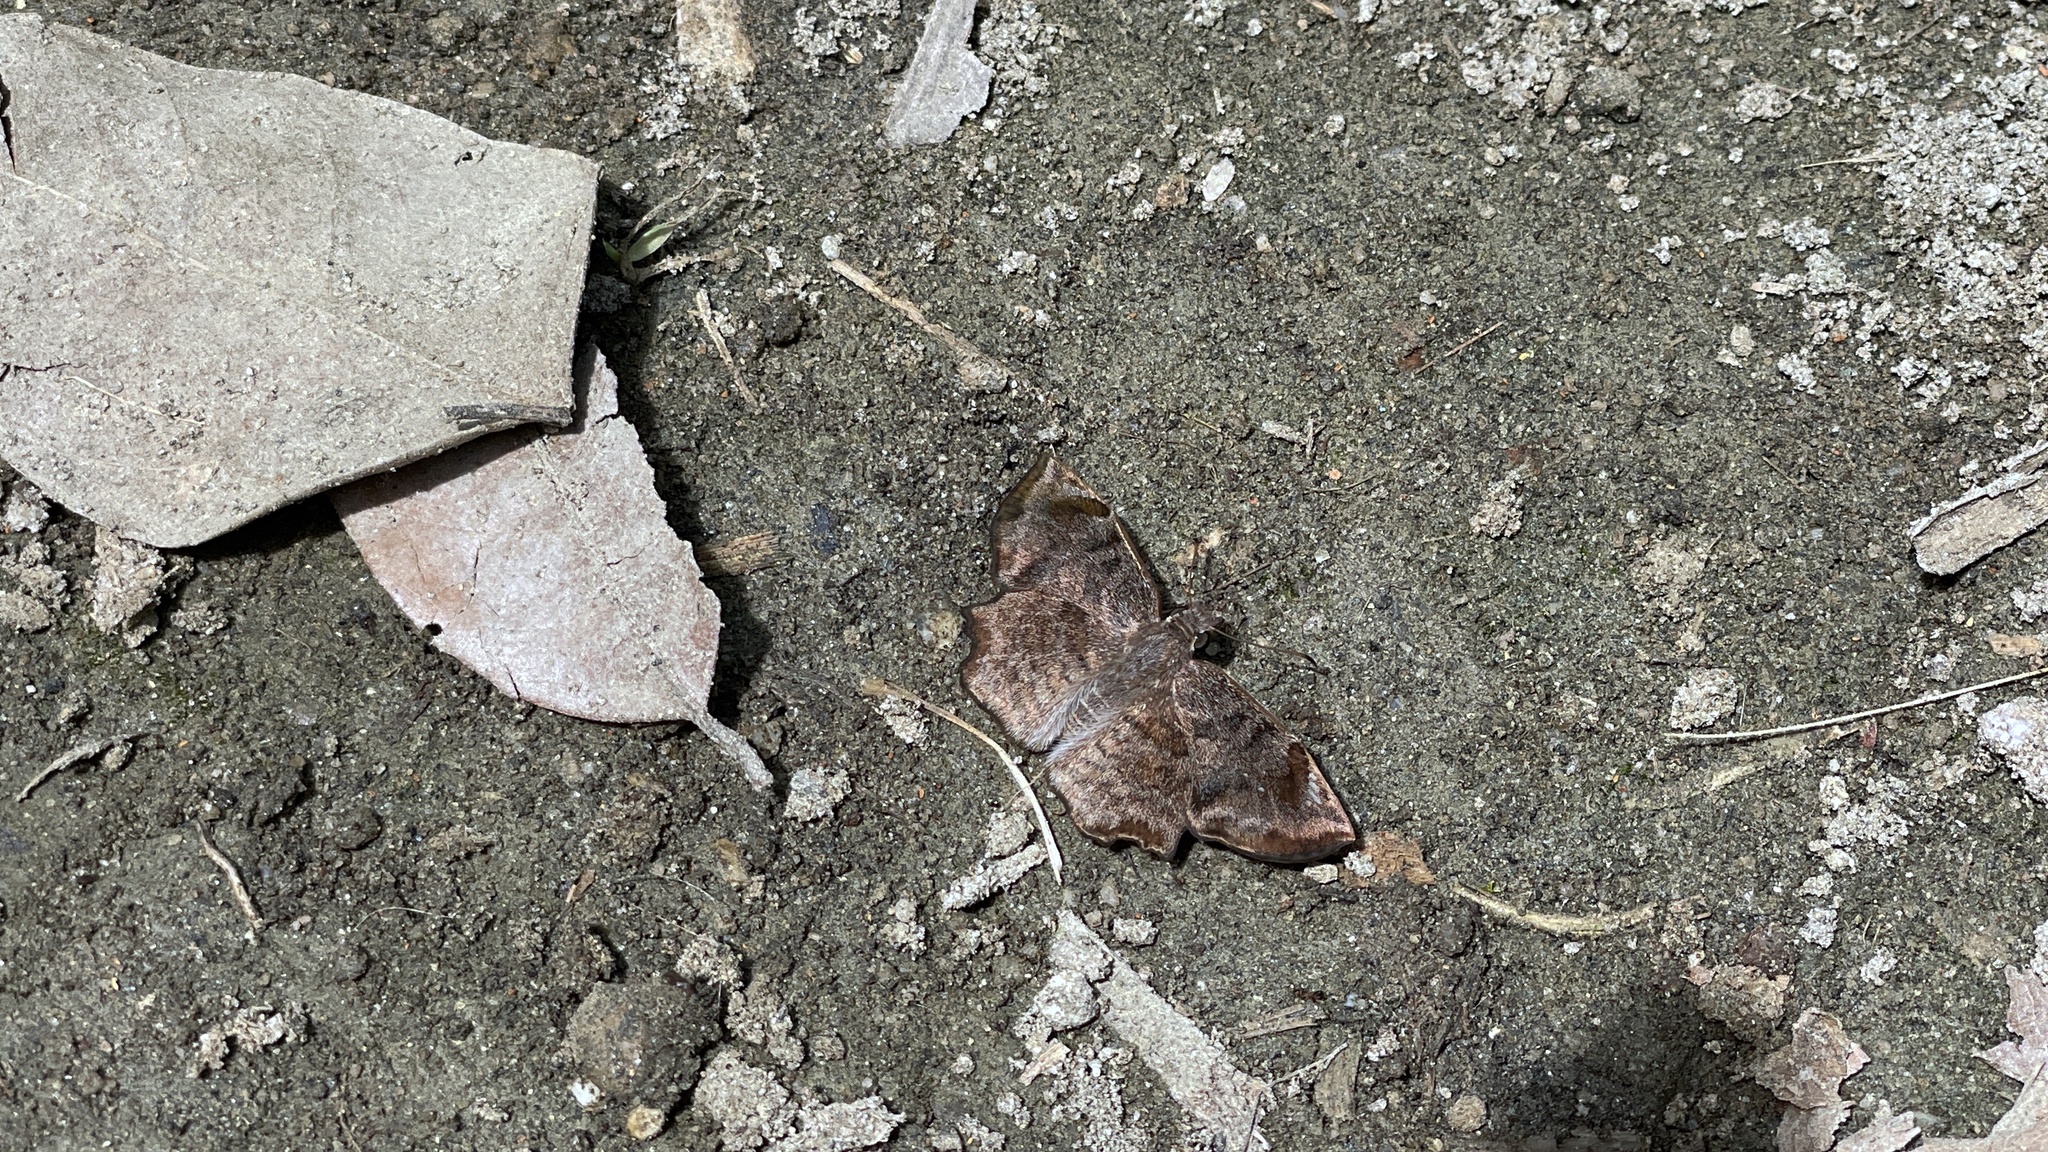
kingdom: Animalia
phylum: Arthropoda
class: Insecta
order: Lepidoptera
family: Hesperiidae
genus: Antigonus
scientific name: Antigonus erosus
